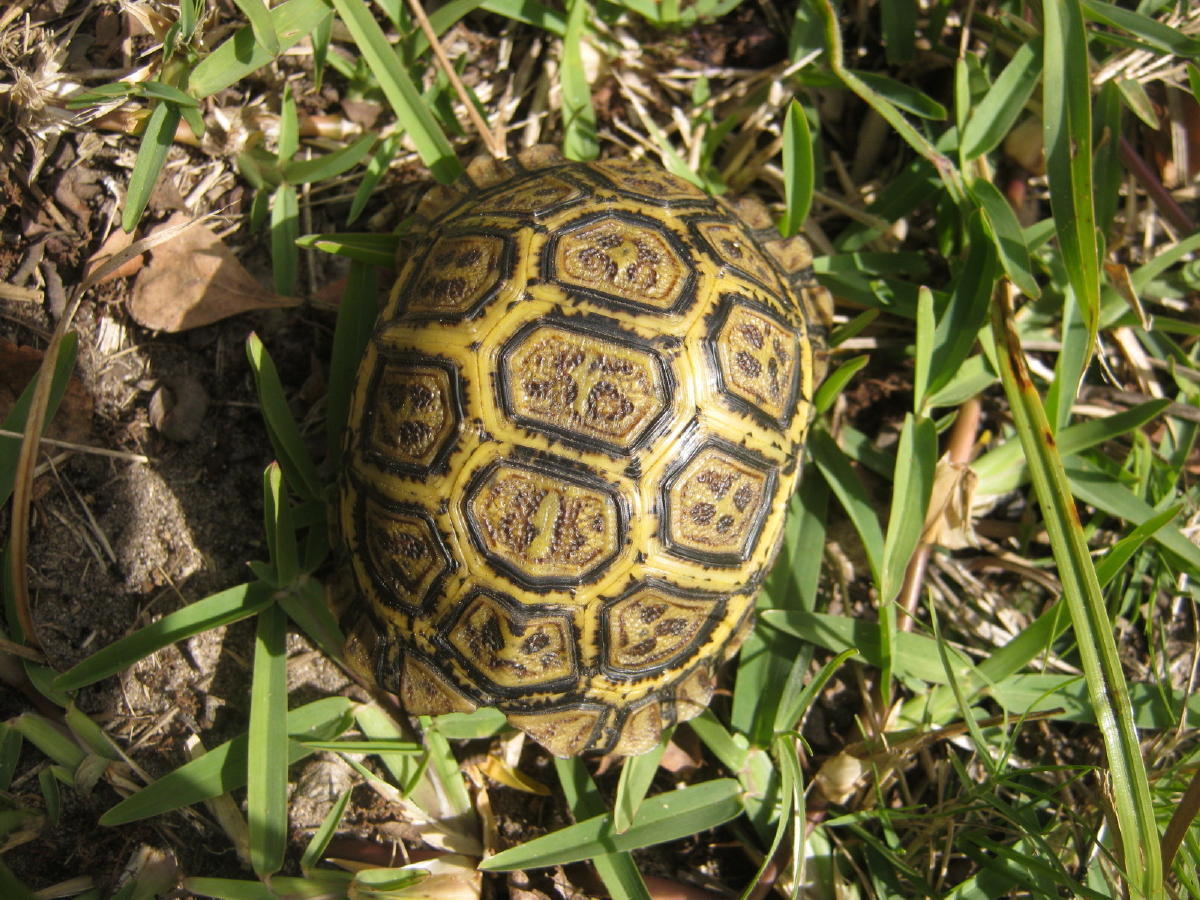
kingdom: Animalia
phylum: Chordata
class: Testudines
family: Testudinidae
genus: Stigmochelys
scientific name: Stigmochelys pardalis
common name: Leopard tortoise
